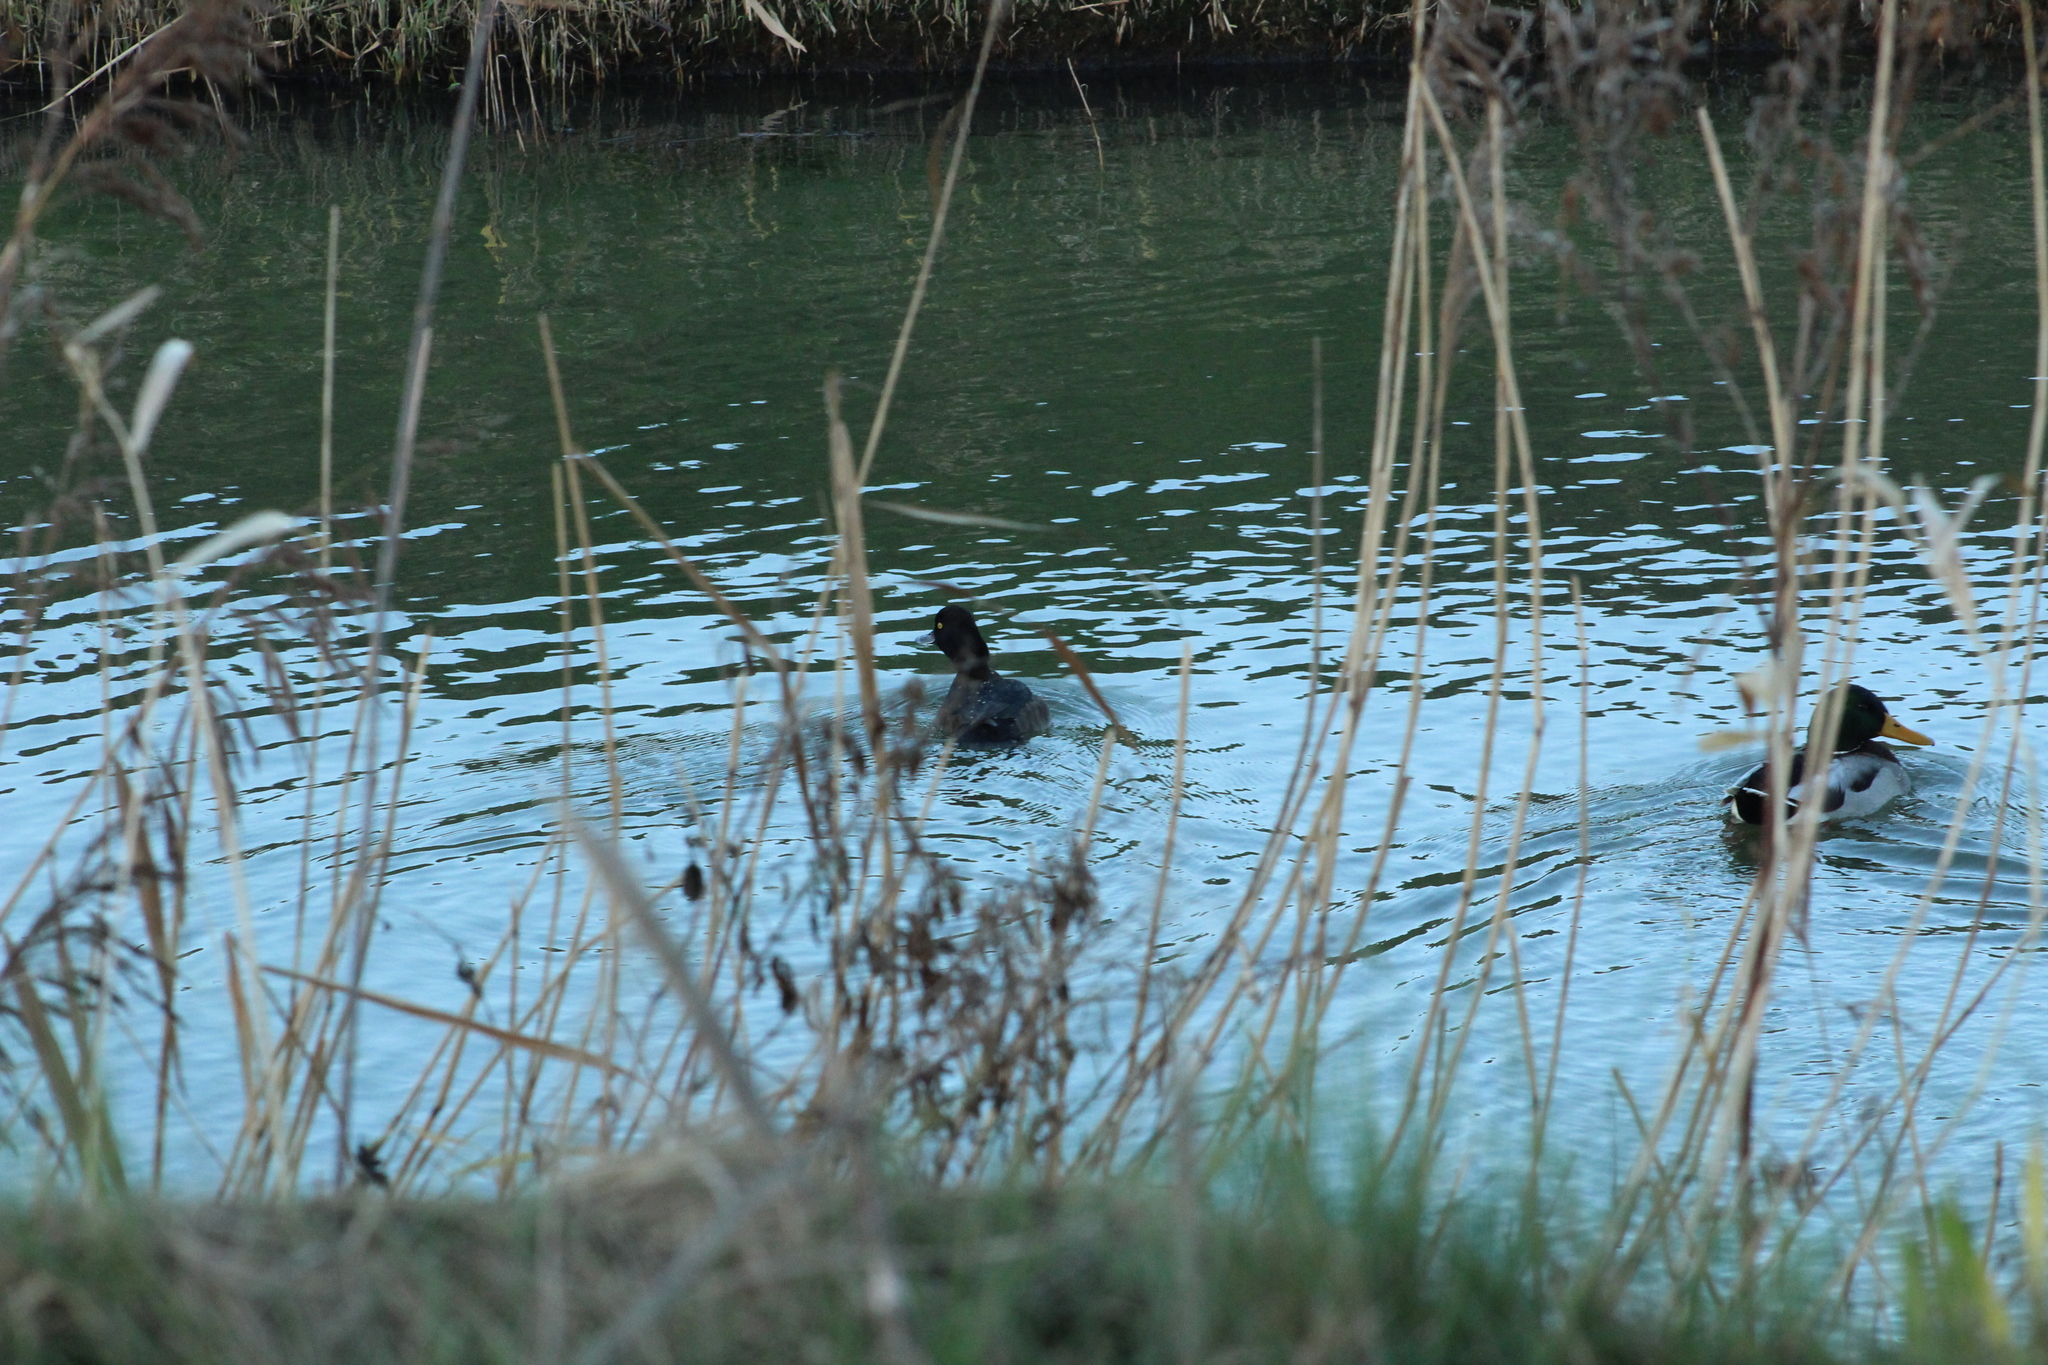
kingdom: Animalia
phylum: Chordata
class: Aves
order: Anseriformes
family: Anatidae
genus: Aythya
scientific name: Aythya fuligula
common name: Tufted duck
